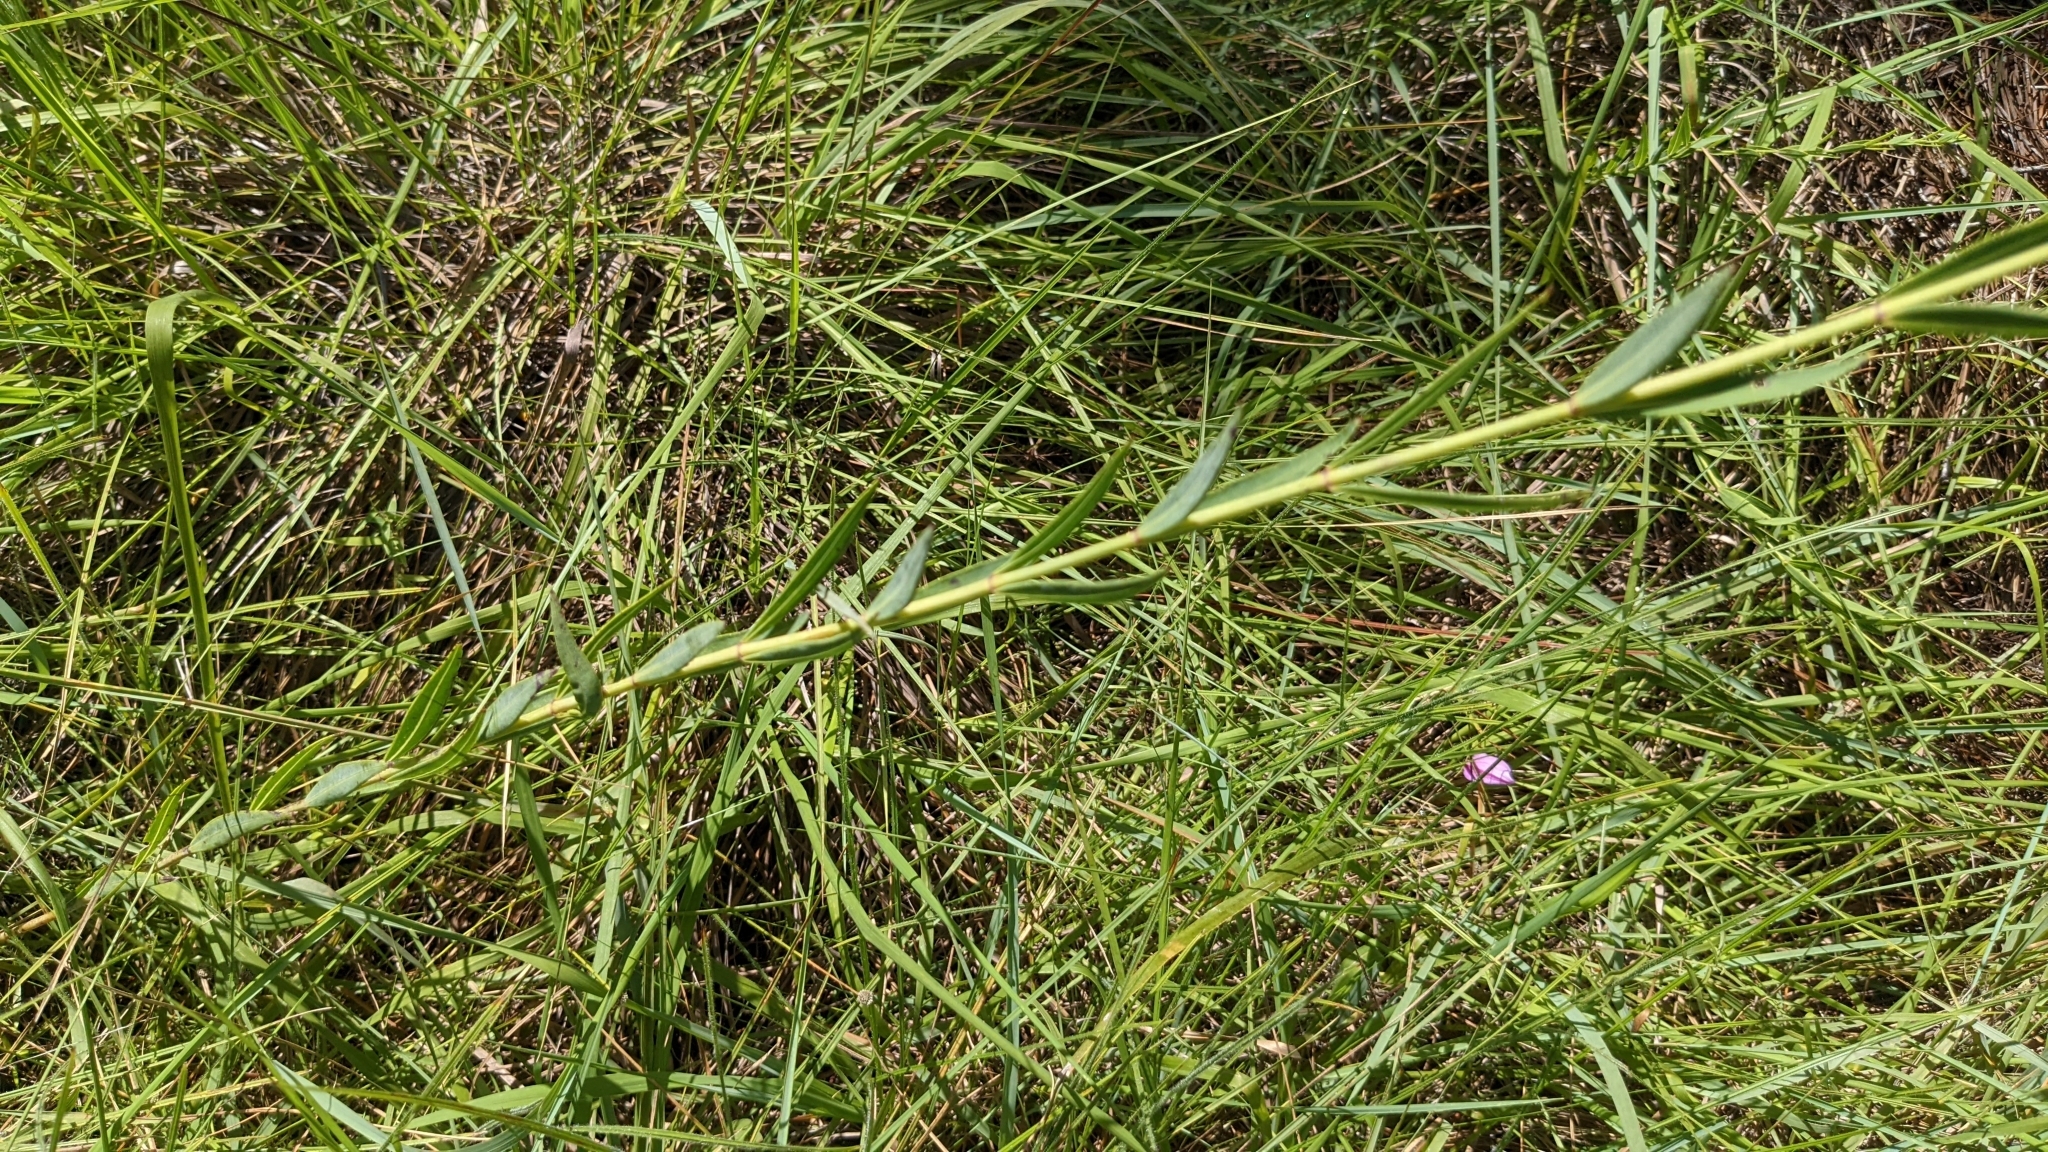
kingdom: Plantae
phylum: Tracheophyta
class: Magnoliopsida
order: Myrtales
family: Melastomataceae
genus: Rhexia
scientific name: Rhexia alifanus
